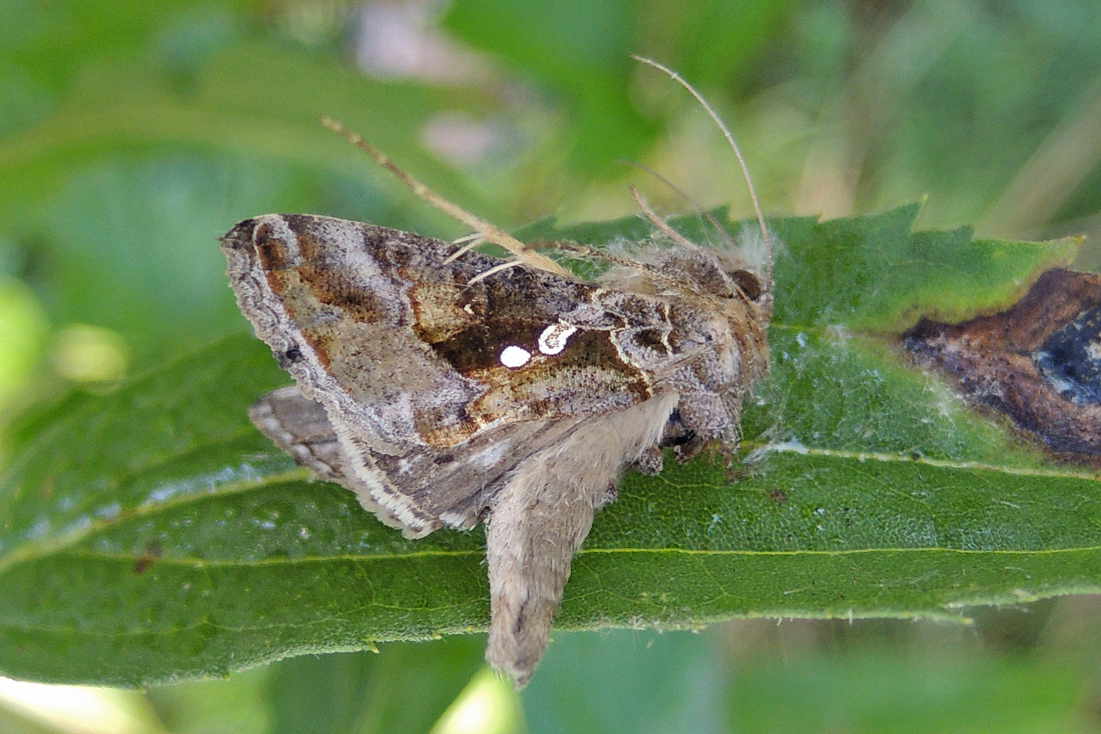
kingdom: Animalia
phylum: Arthropoda
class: Insecta
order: Lepidoptera
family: Noctuidae
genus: Chrysodeixis
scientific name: Chrysodeixis includens
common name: Cutworm moth
